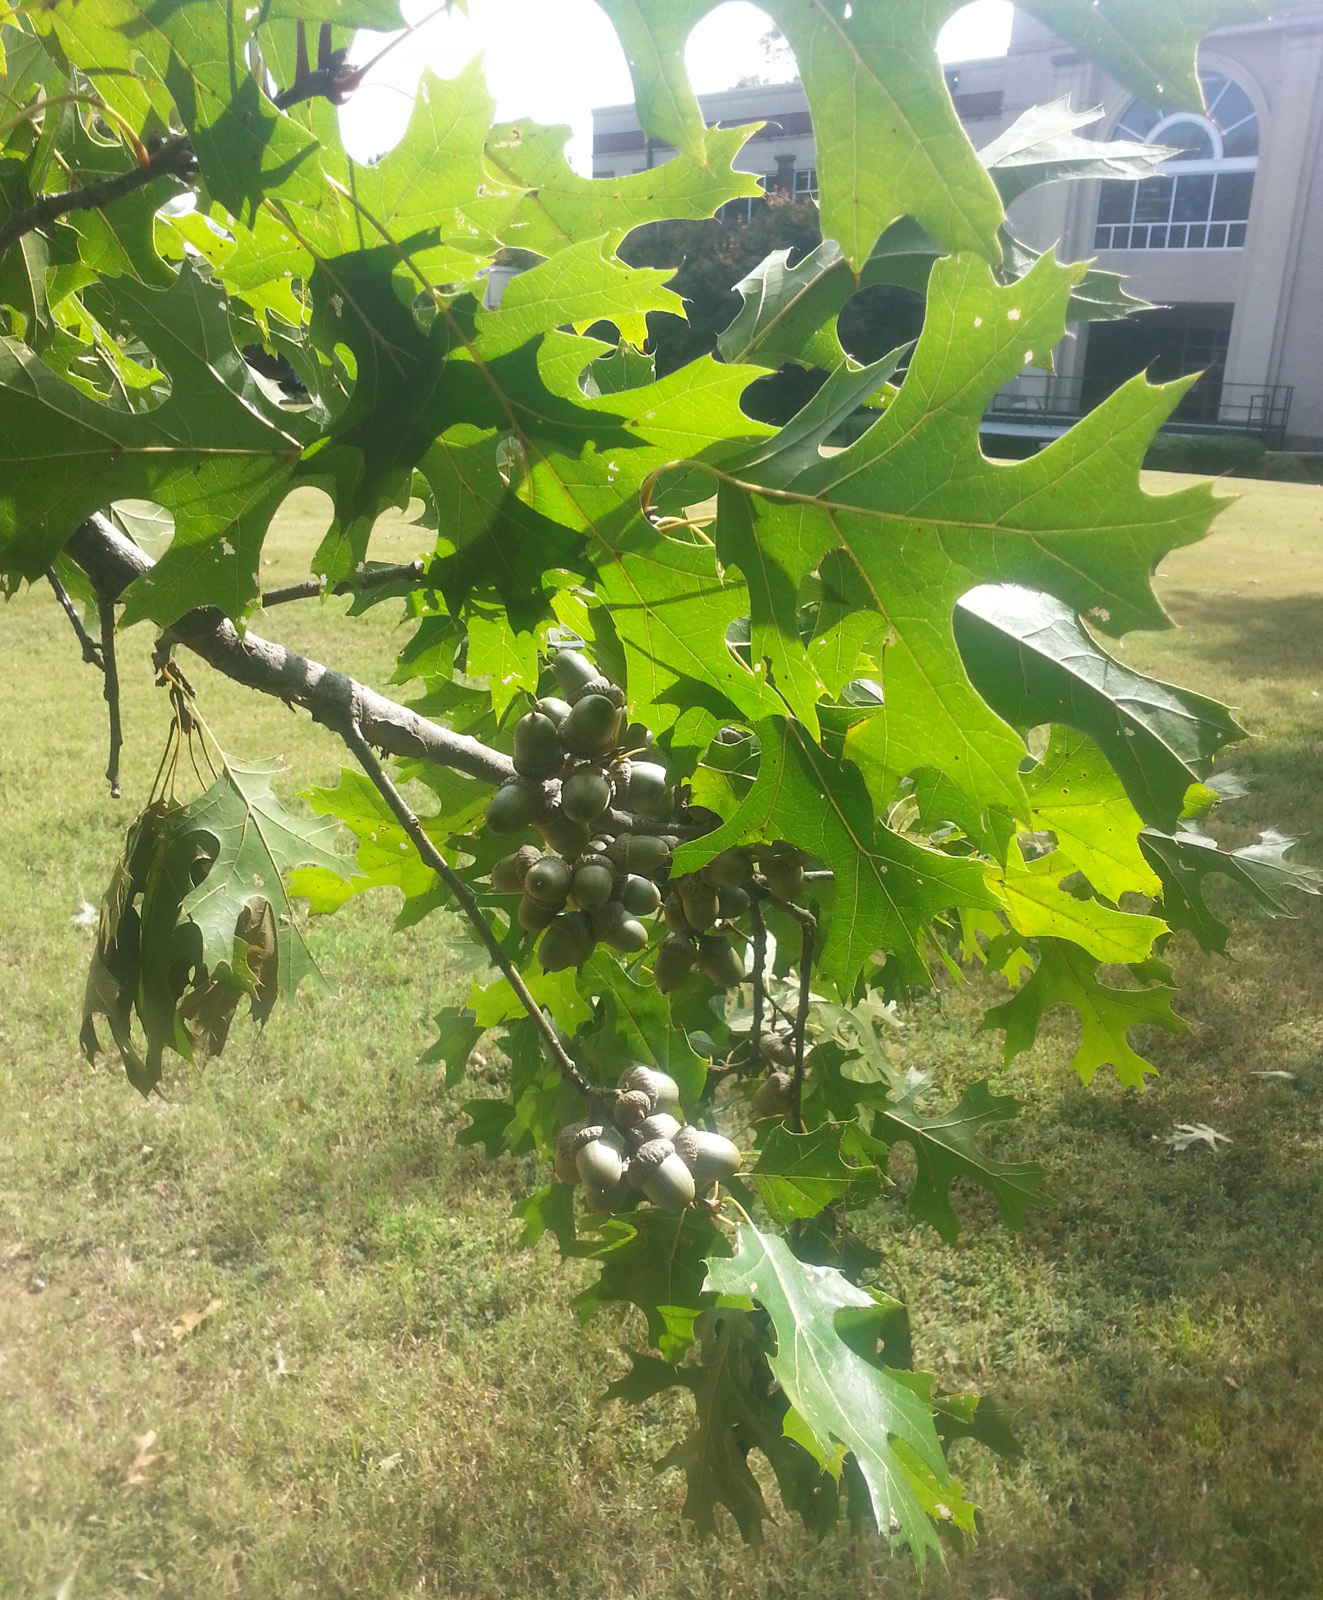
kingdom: Plantae
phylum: Tracheophyta
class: Magnoliopsida
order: Fagales
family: Fagaceae
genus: Quercus
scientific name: Quercus shumardii
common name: Shumard oak
